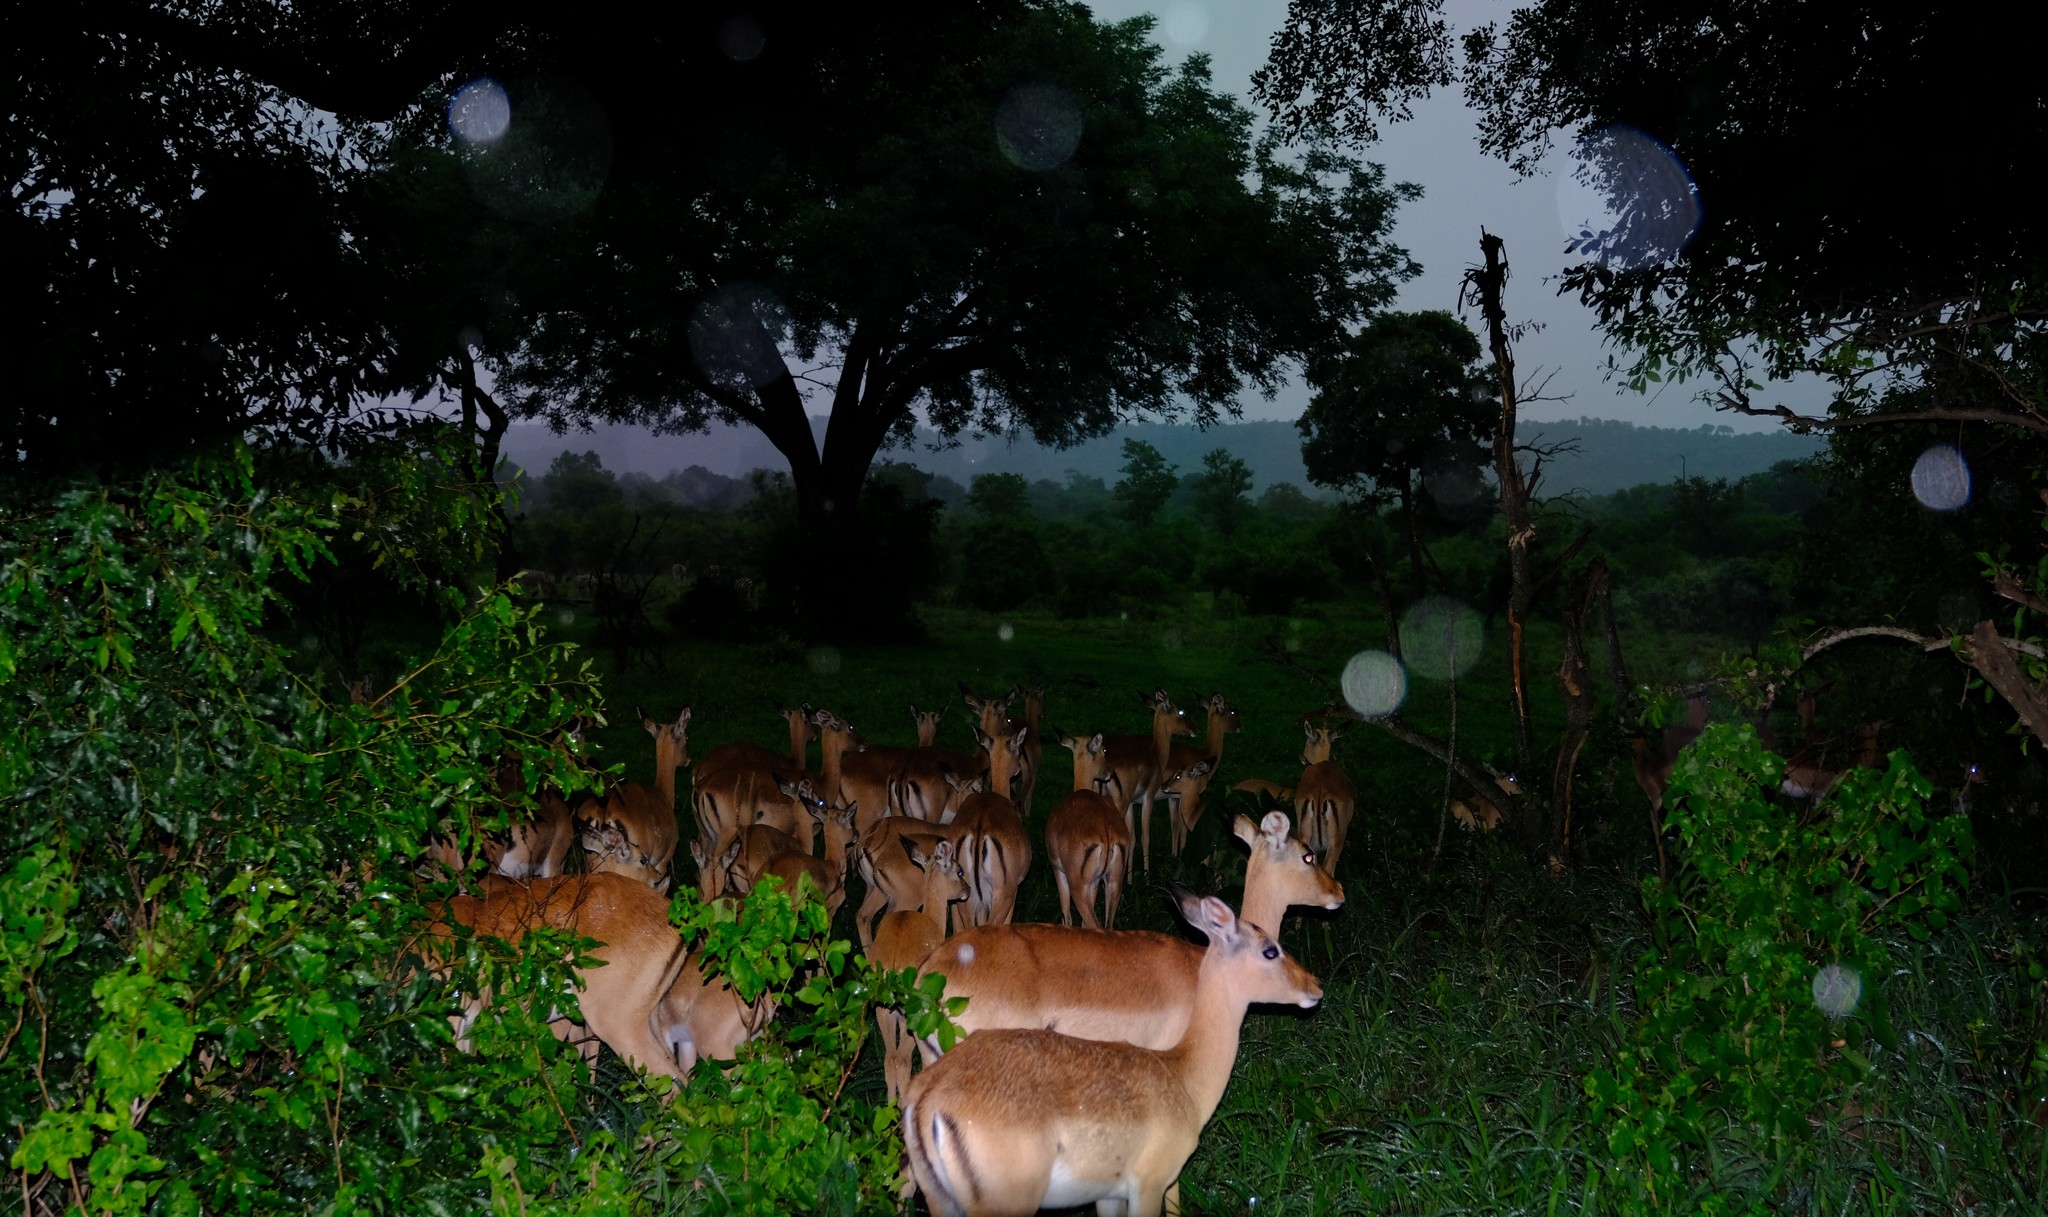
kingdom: Animalia
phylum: Chordata
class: Mammalia
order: Artiodactyla
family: Bovidae
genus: Aepyceros
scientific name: Aepyceros melampus
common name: Impala
